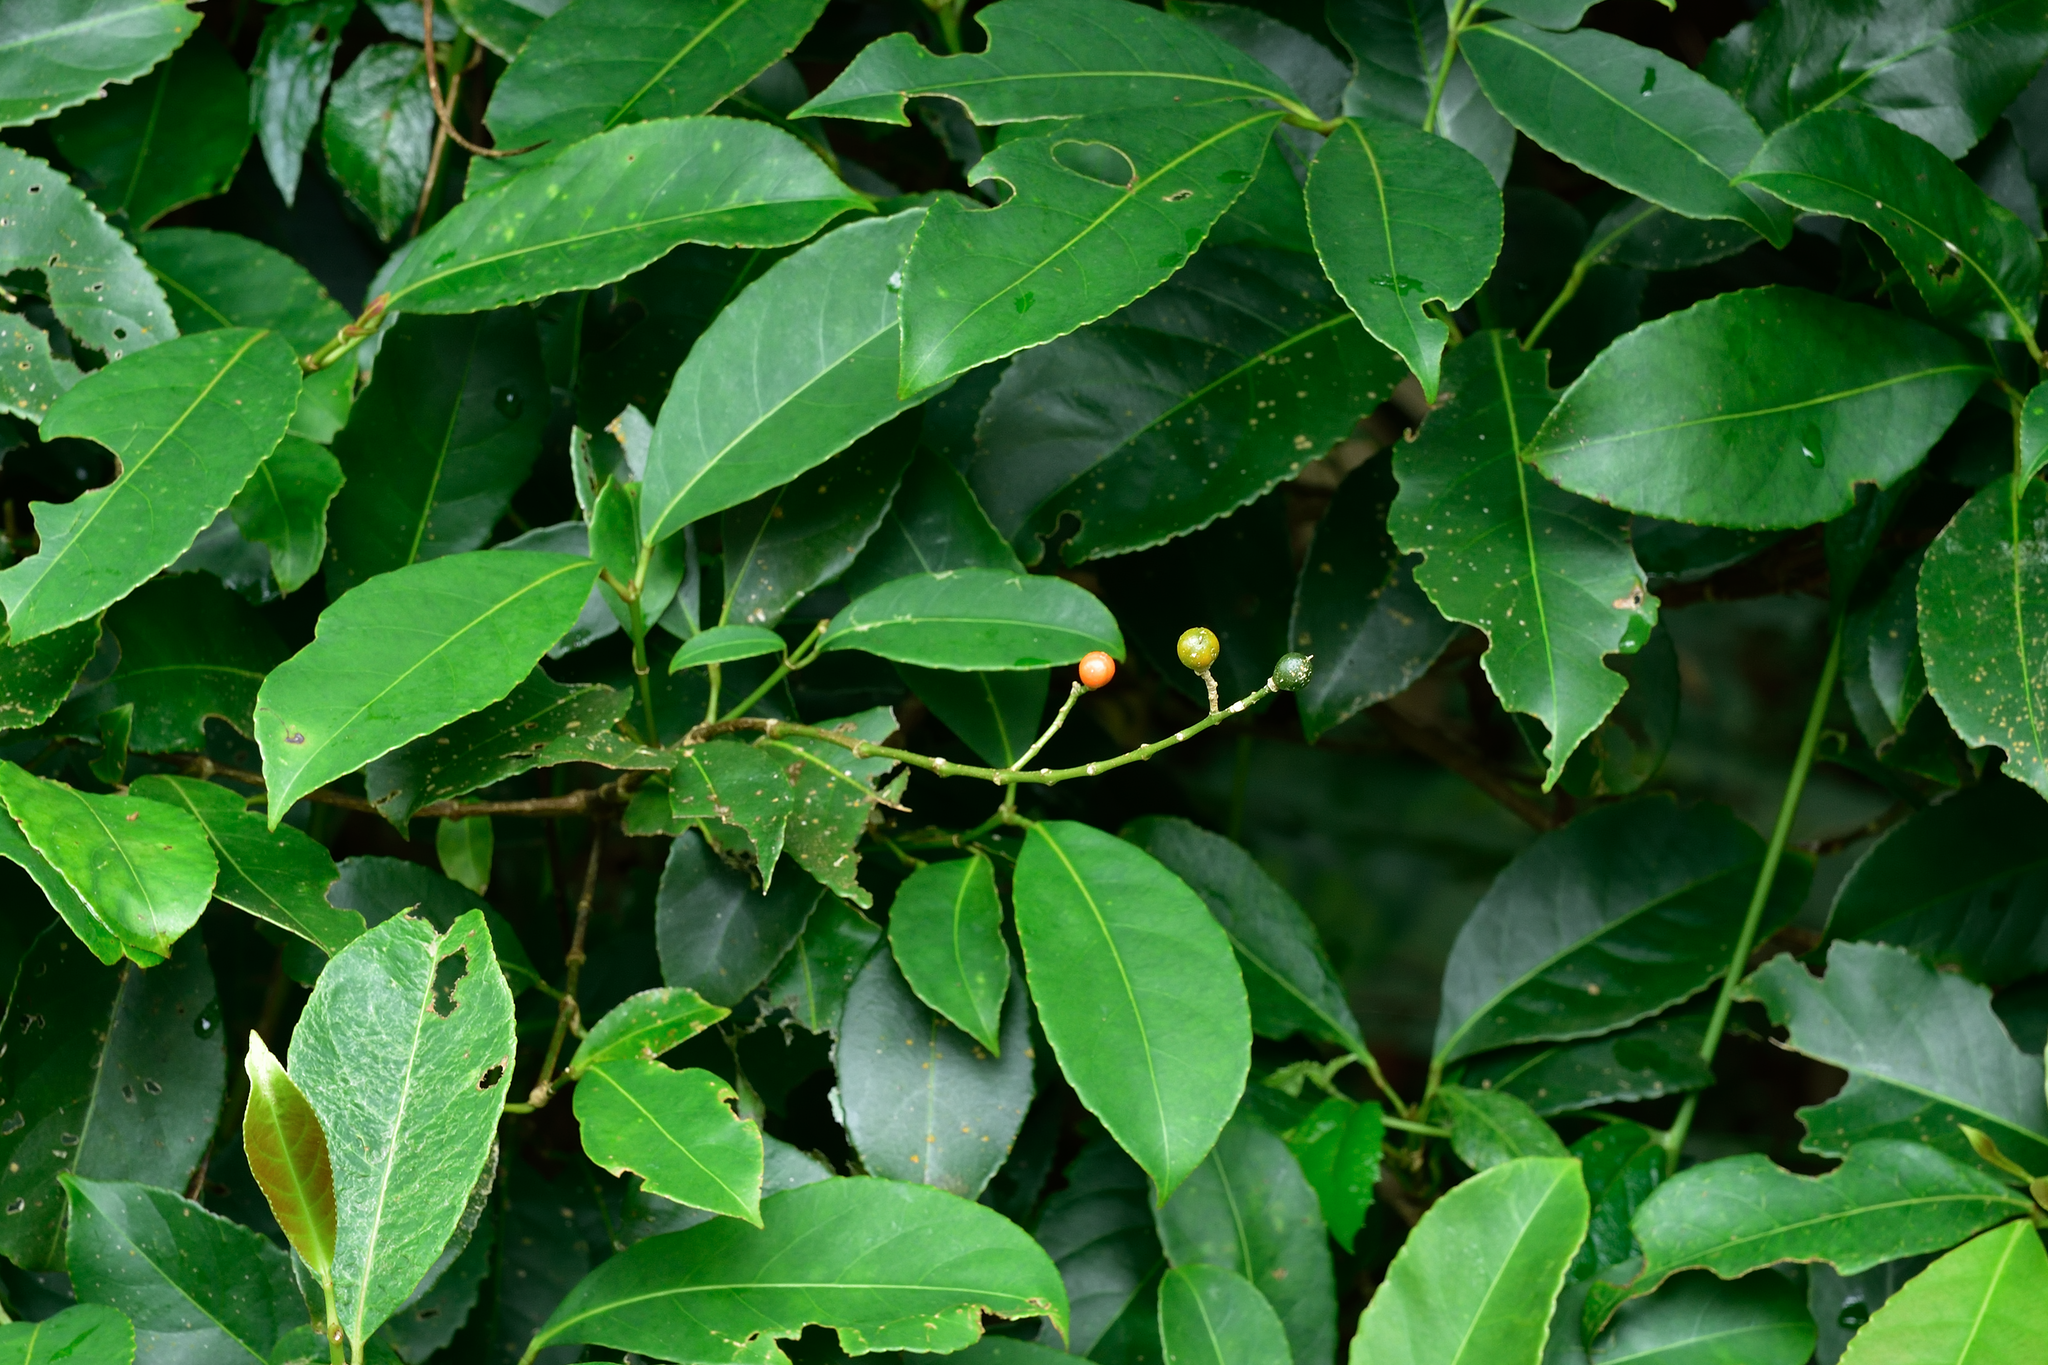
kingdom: Plantae
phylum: Tracheophyta
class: Magnoliopsida
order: Crossosomatales
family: Staphyleaceae
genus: Turpinia
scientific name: Turpinia formosana
